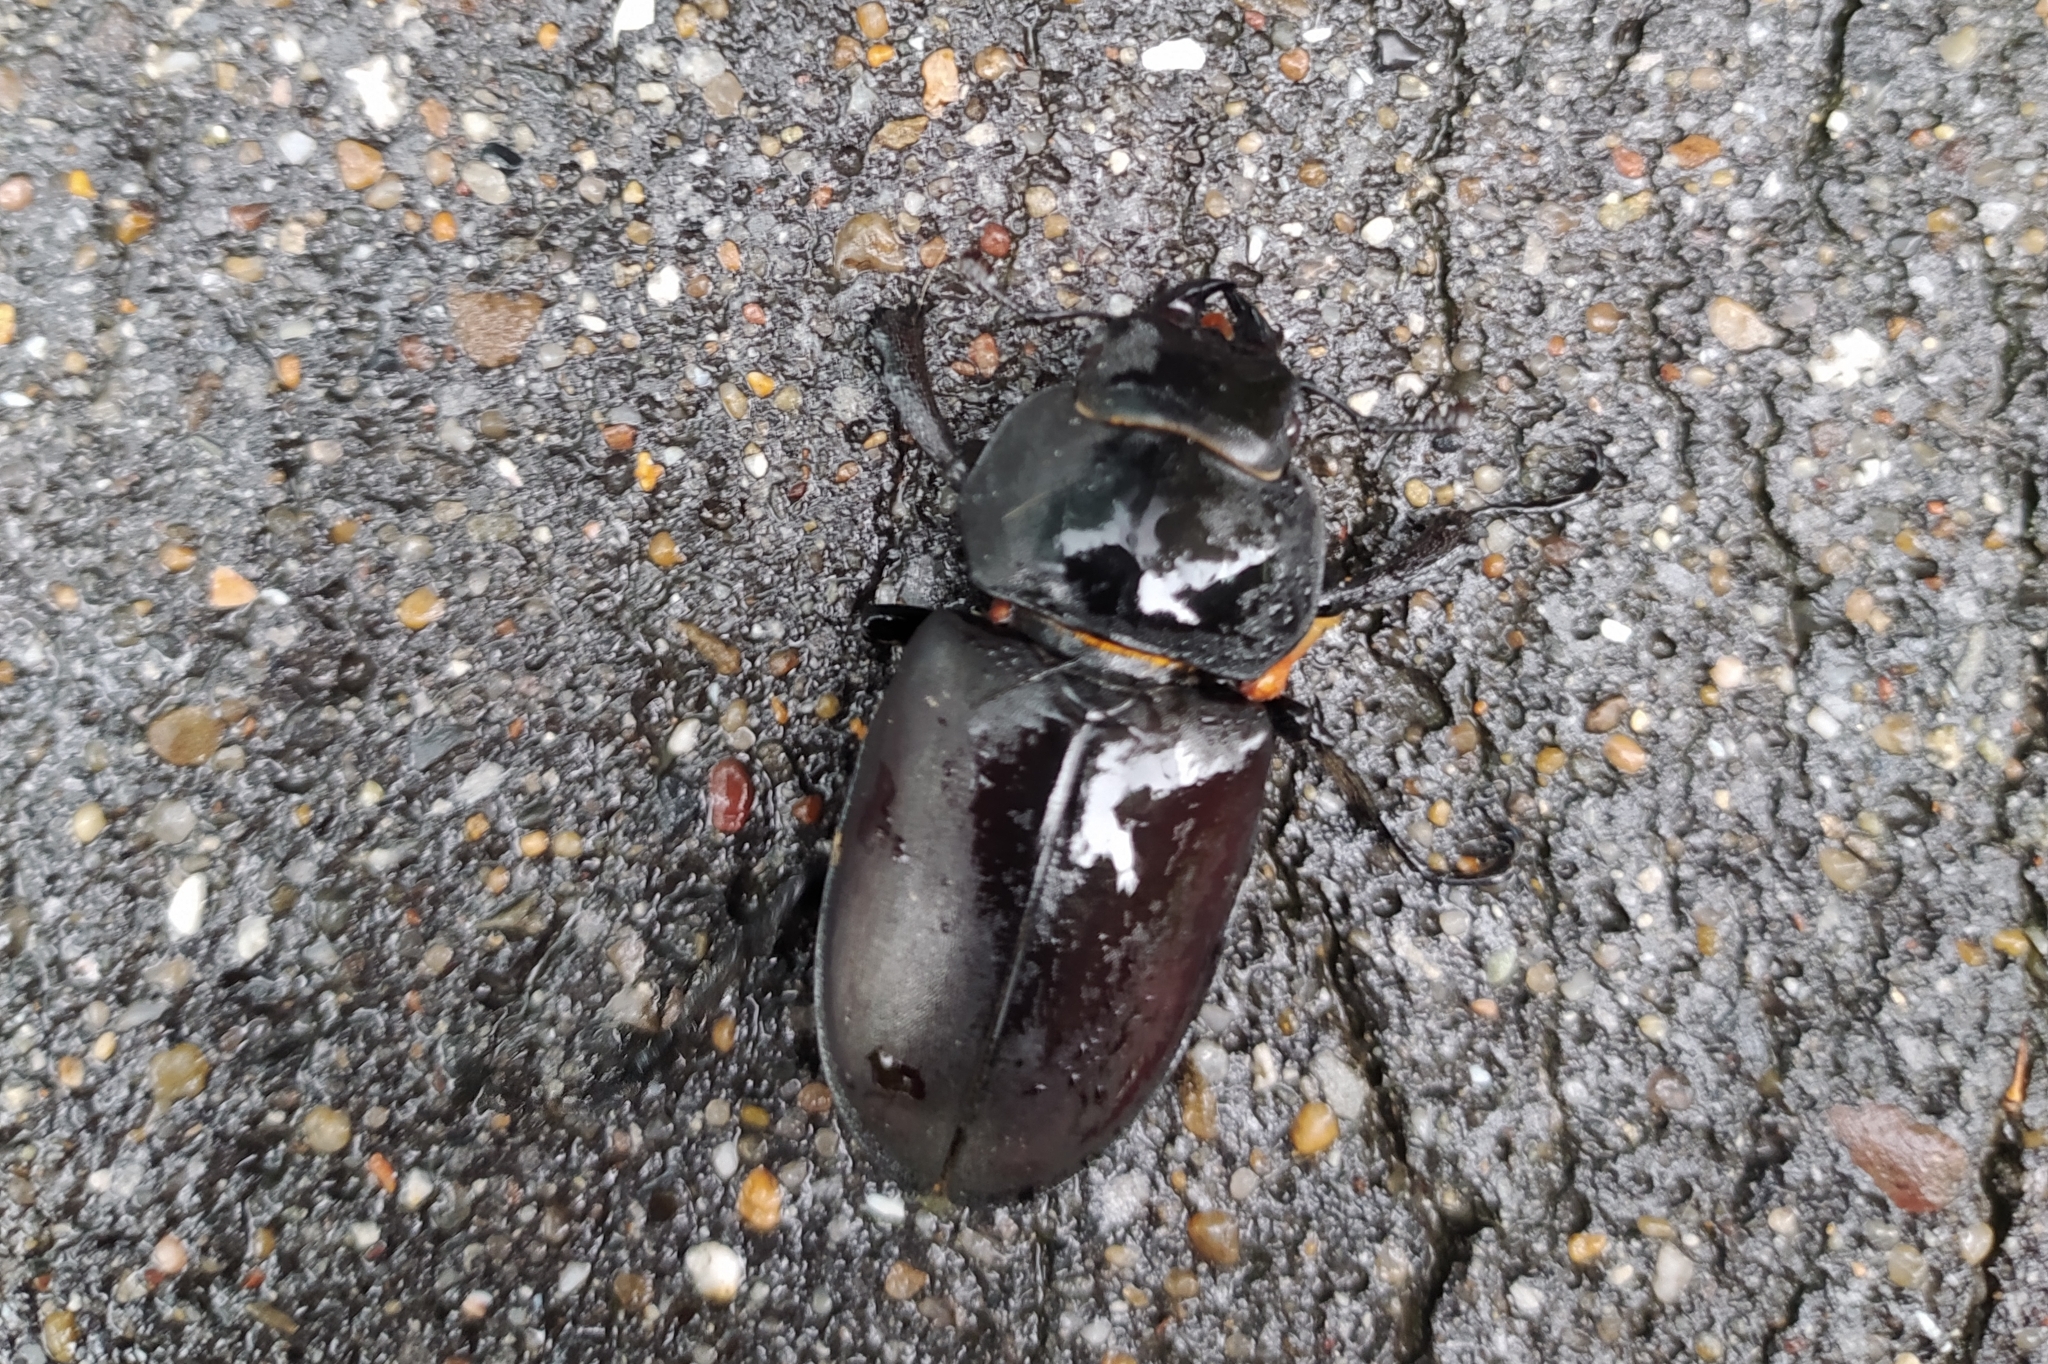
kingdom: Animalia
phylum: Arthropoda
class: Insecta
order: Coleoptera
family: Lucanidae
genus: Lucanus
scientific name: Lucanus cervus
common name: Stag beetle
